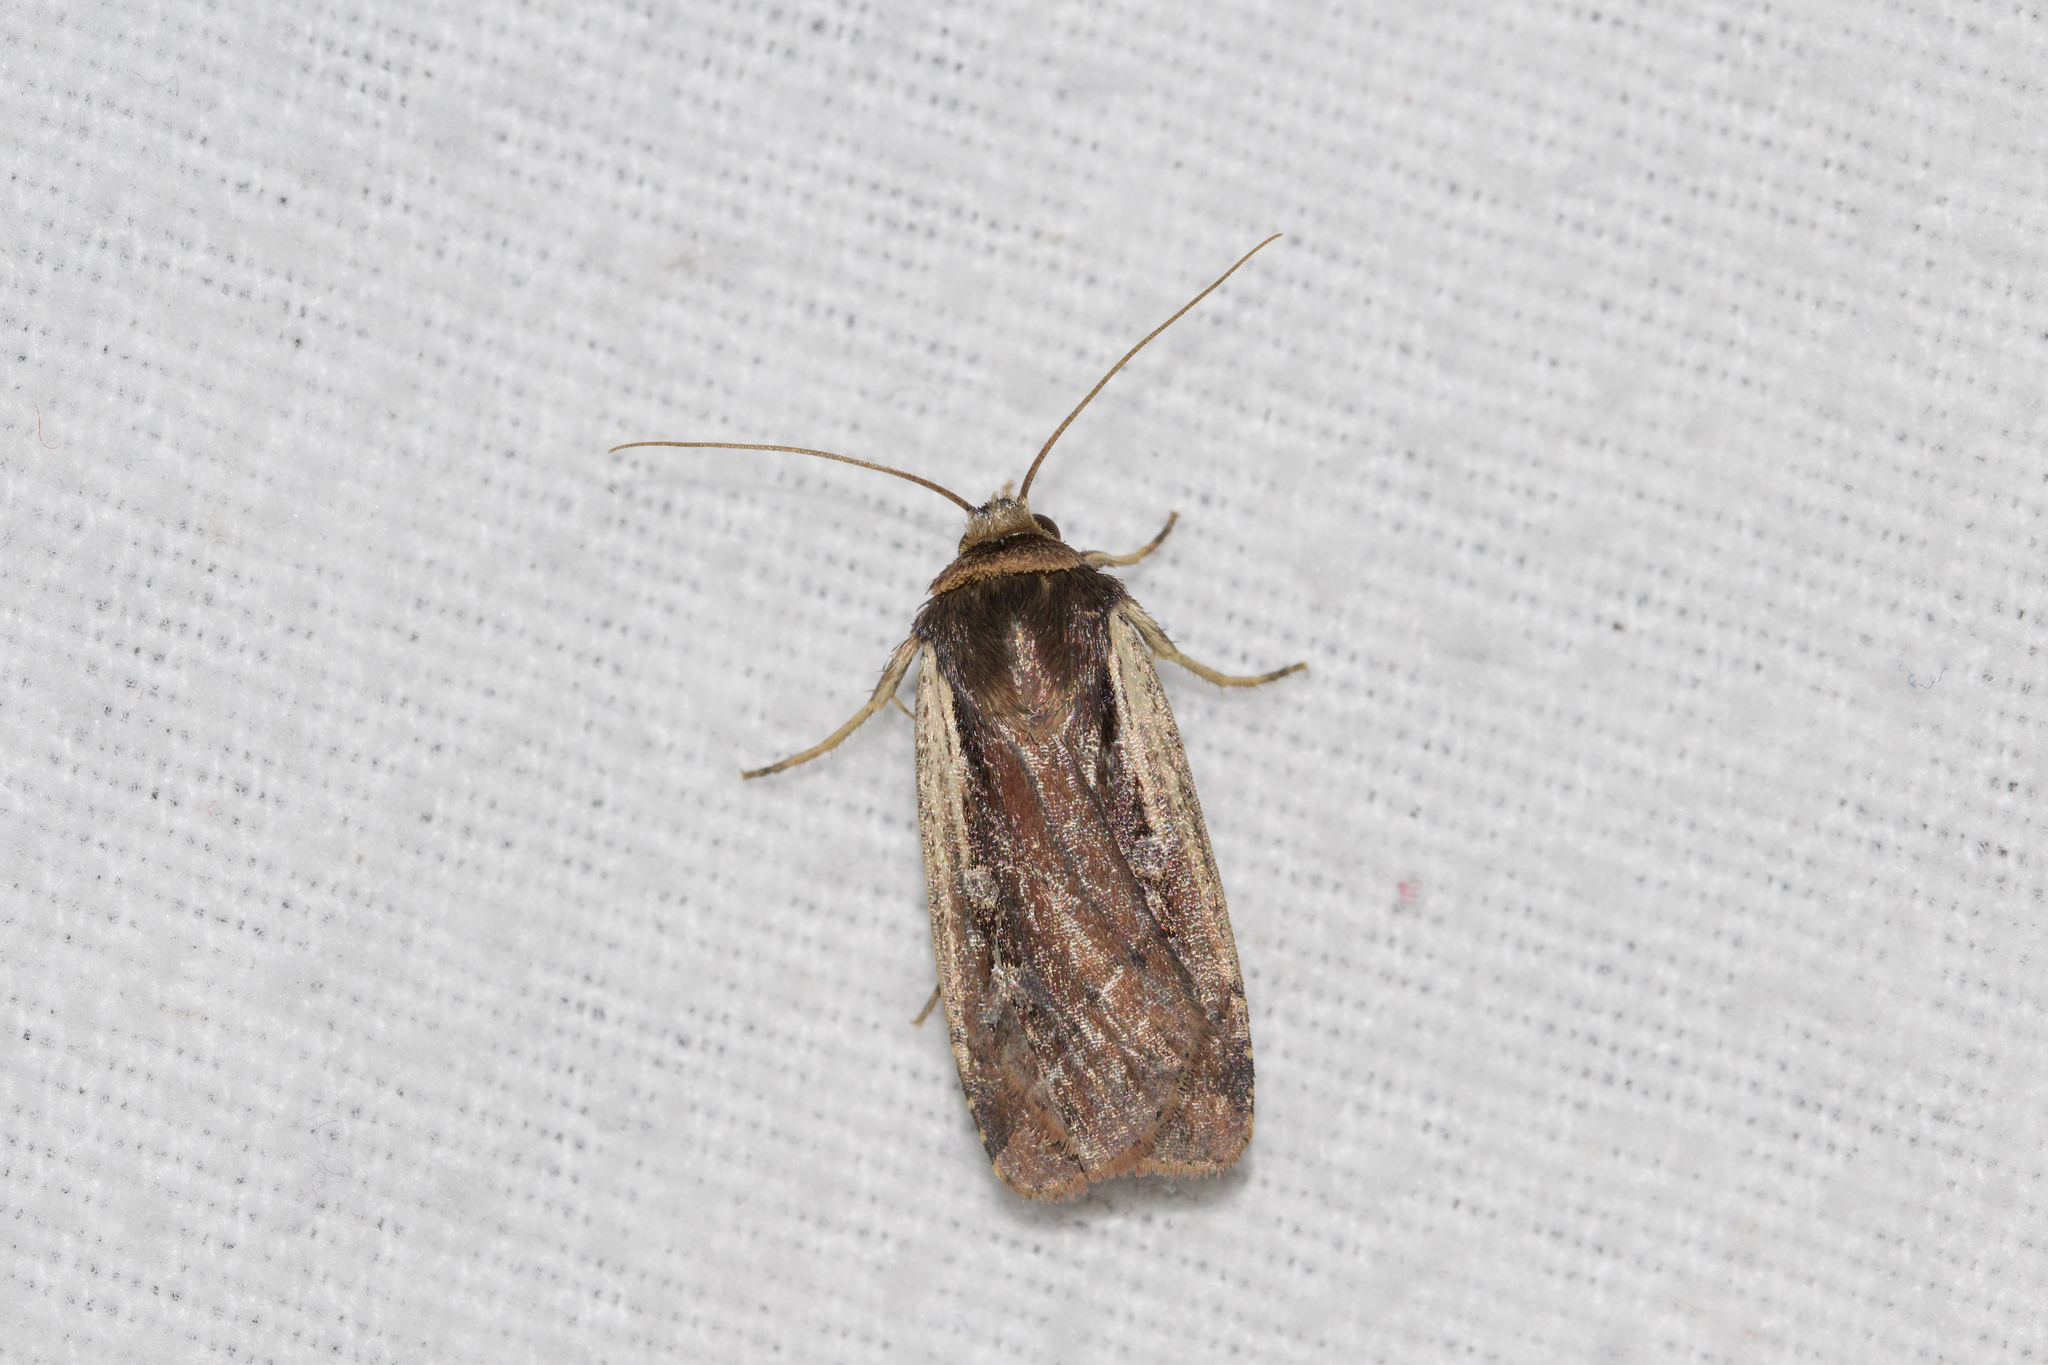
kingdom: Animalia
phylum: Arthropoda
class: Insecta
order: Lepidoptera
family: Noctuidae
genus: Ochropleura
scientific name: Ochropleura implecta
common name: Flame-shouldered dart
